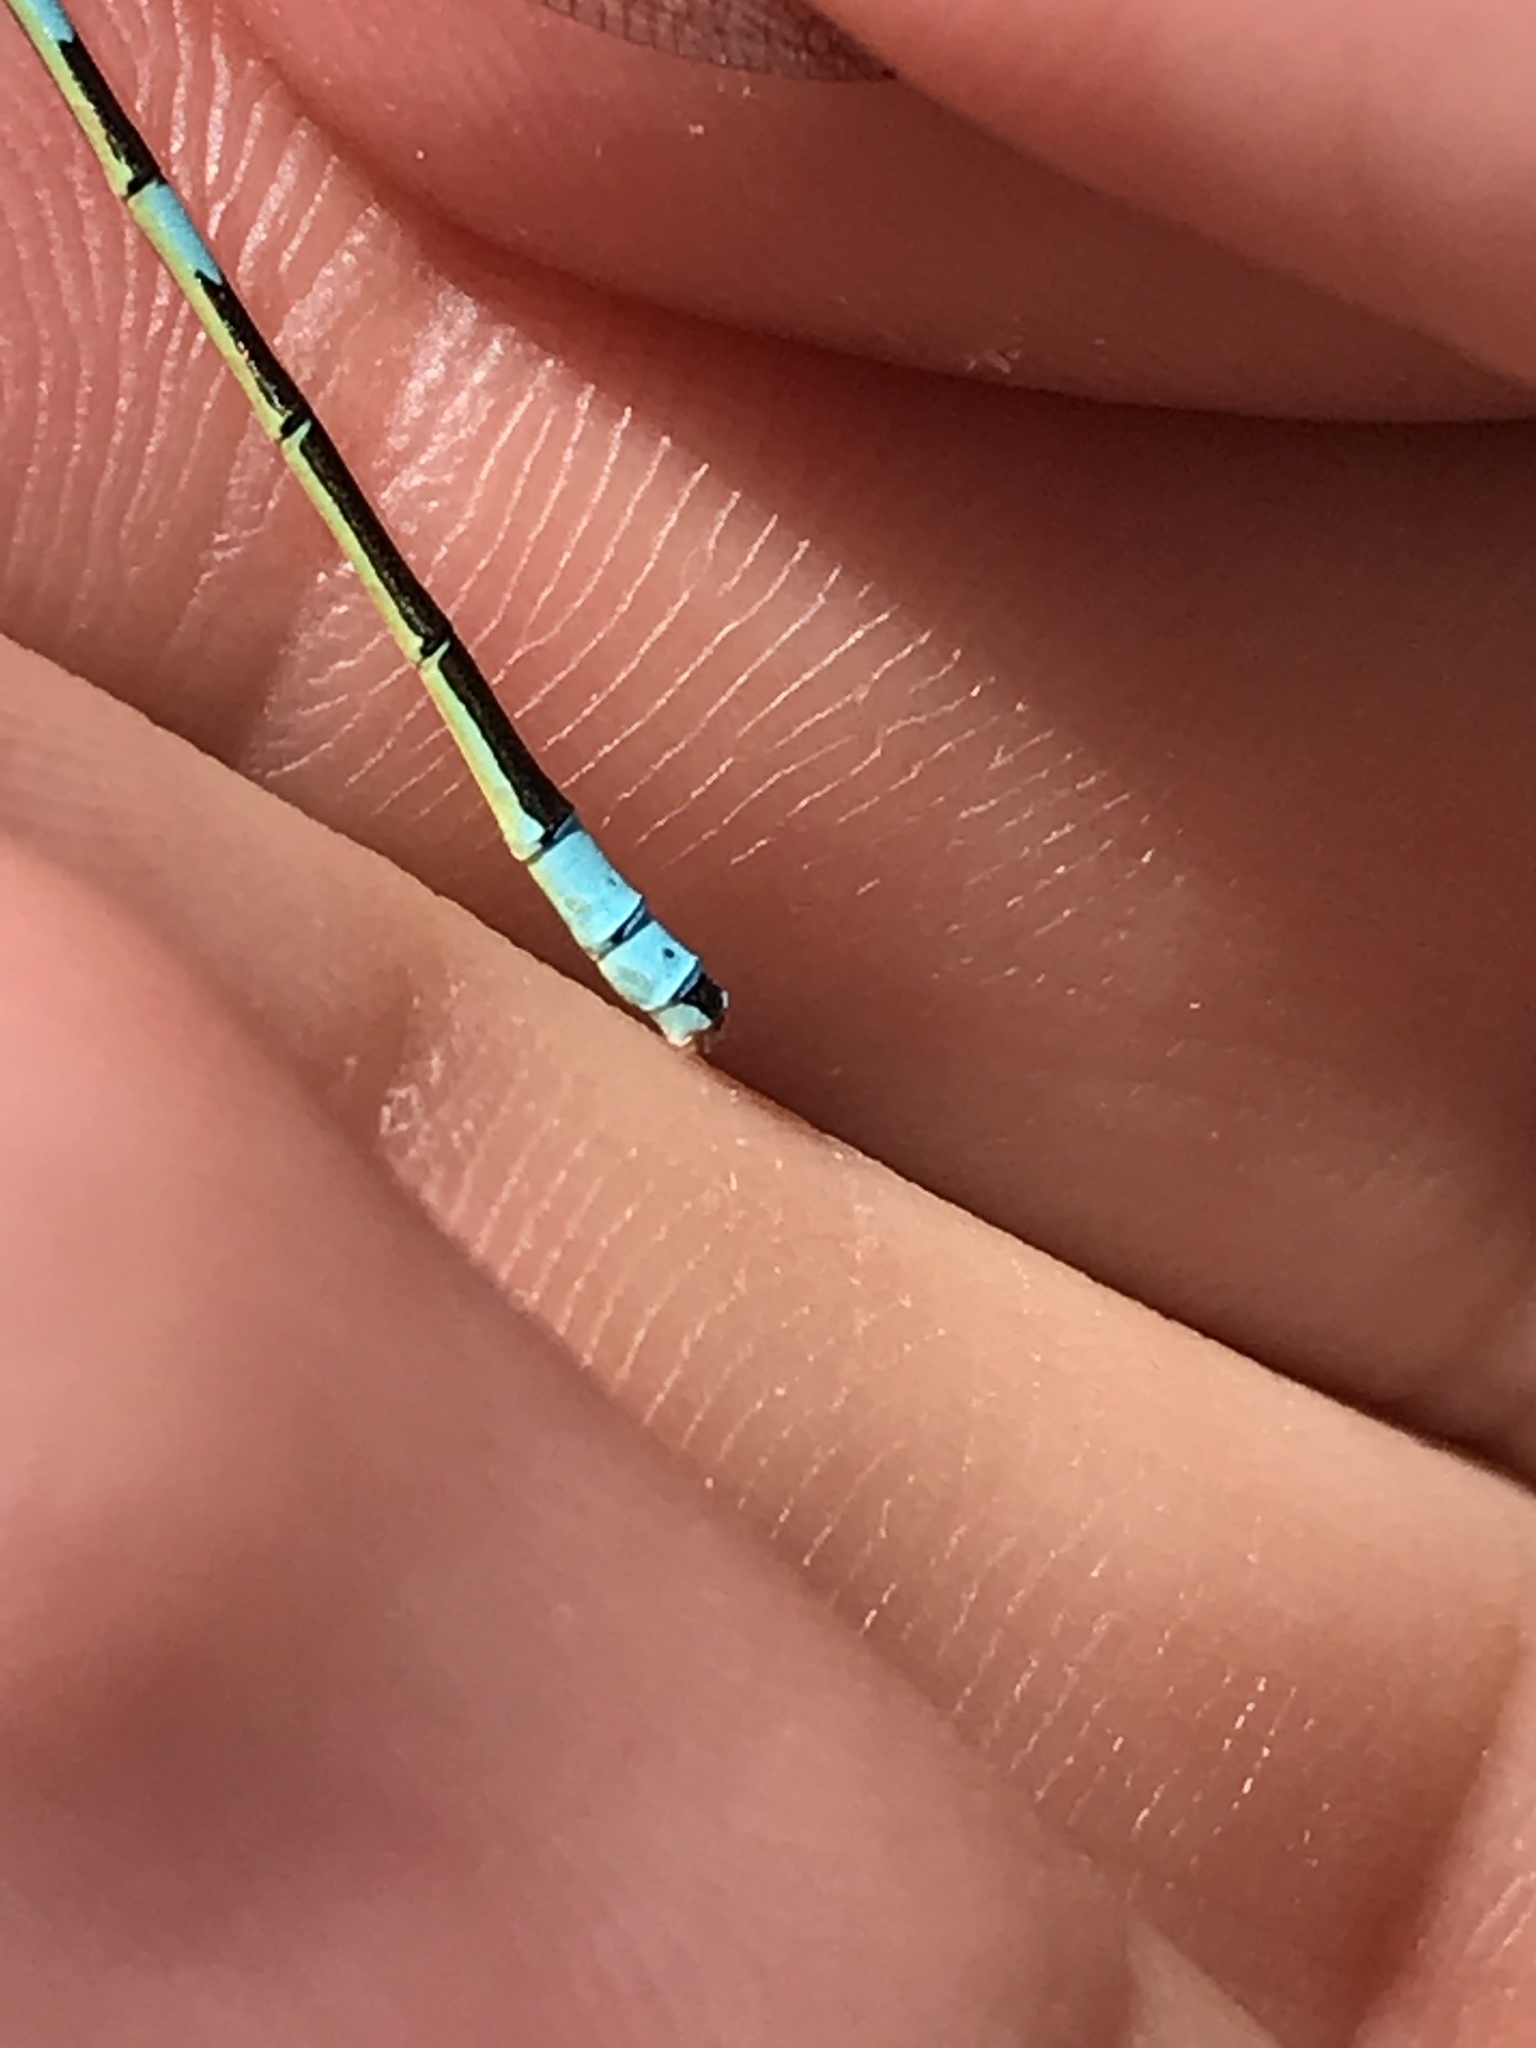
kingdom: Animalia
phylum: Arthropoda
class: Insecta
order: Odonata
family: Coenagrionidae
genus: Coenagrion
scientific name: Coenagrion resolutum
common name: Taiga bluet
